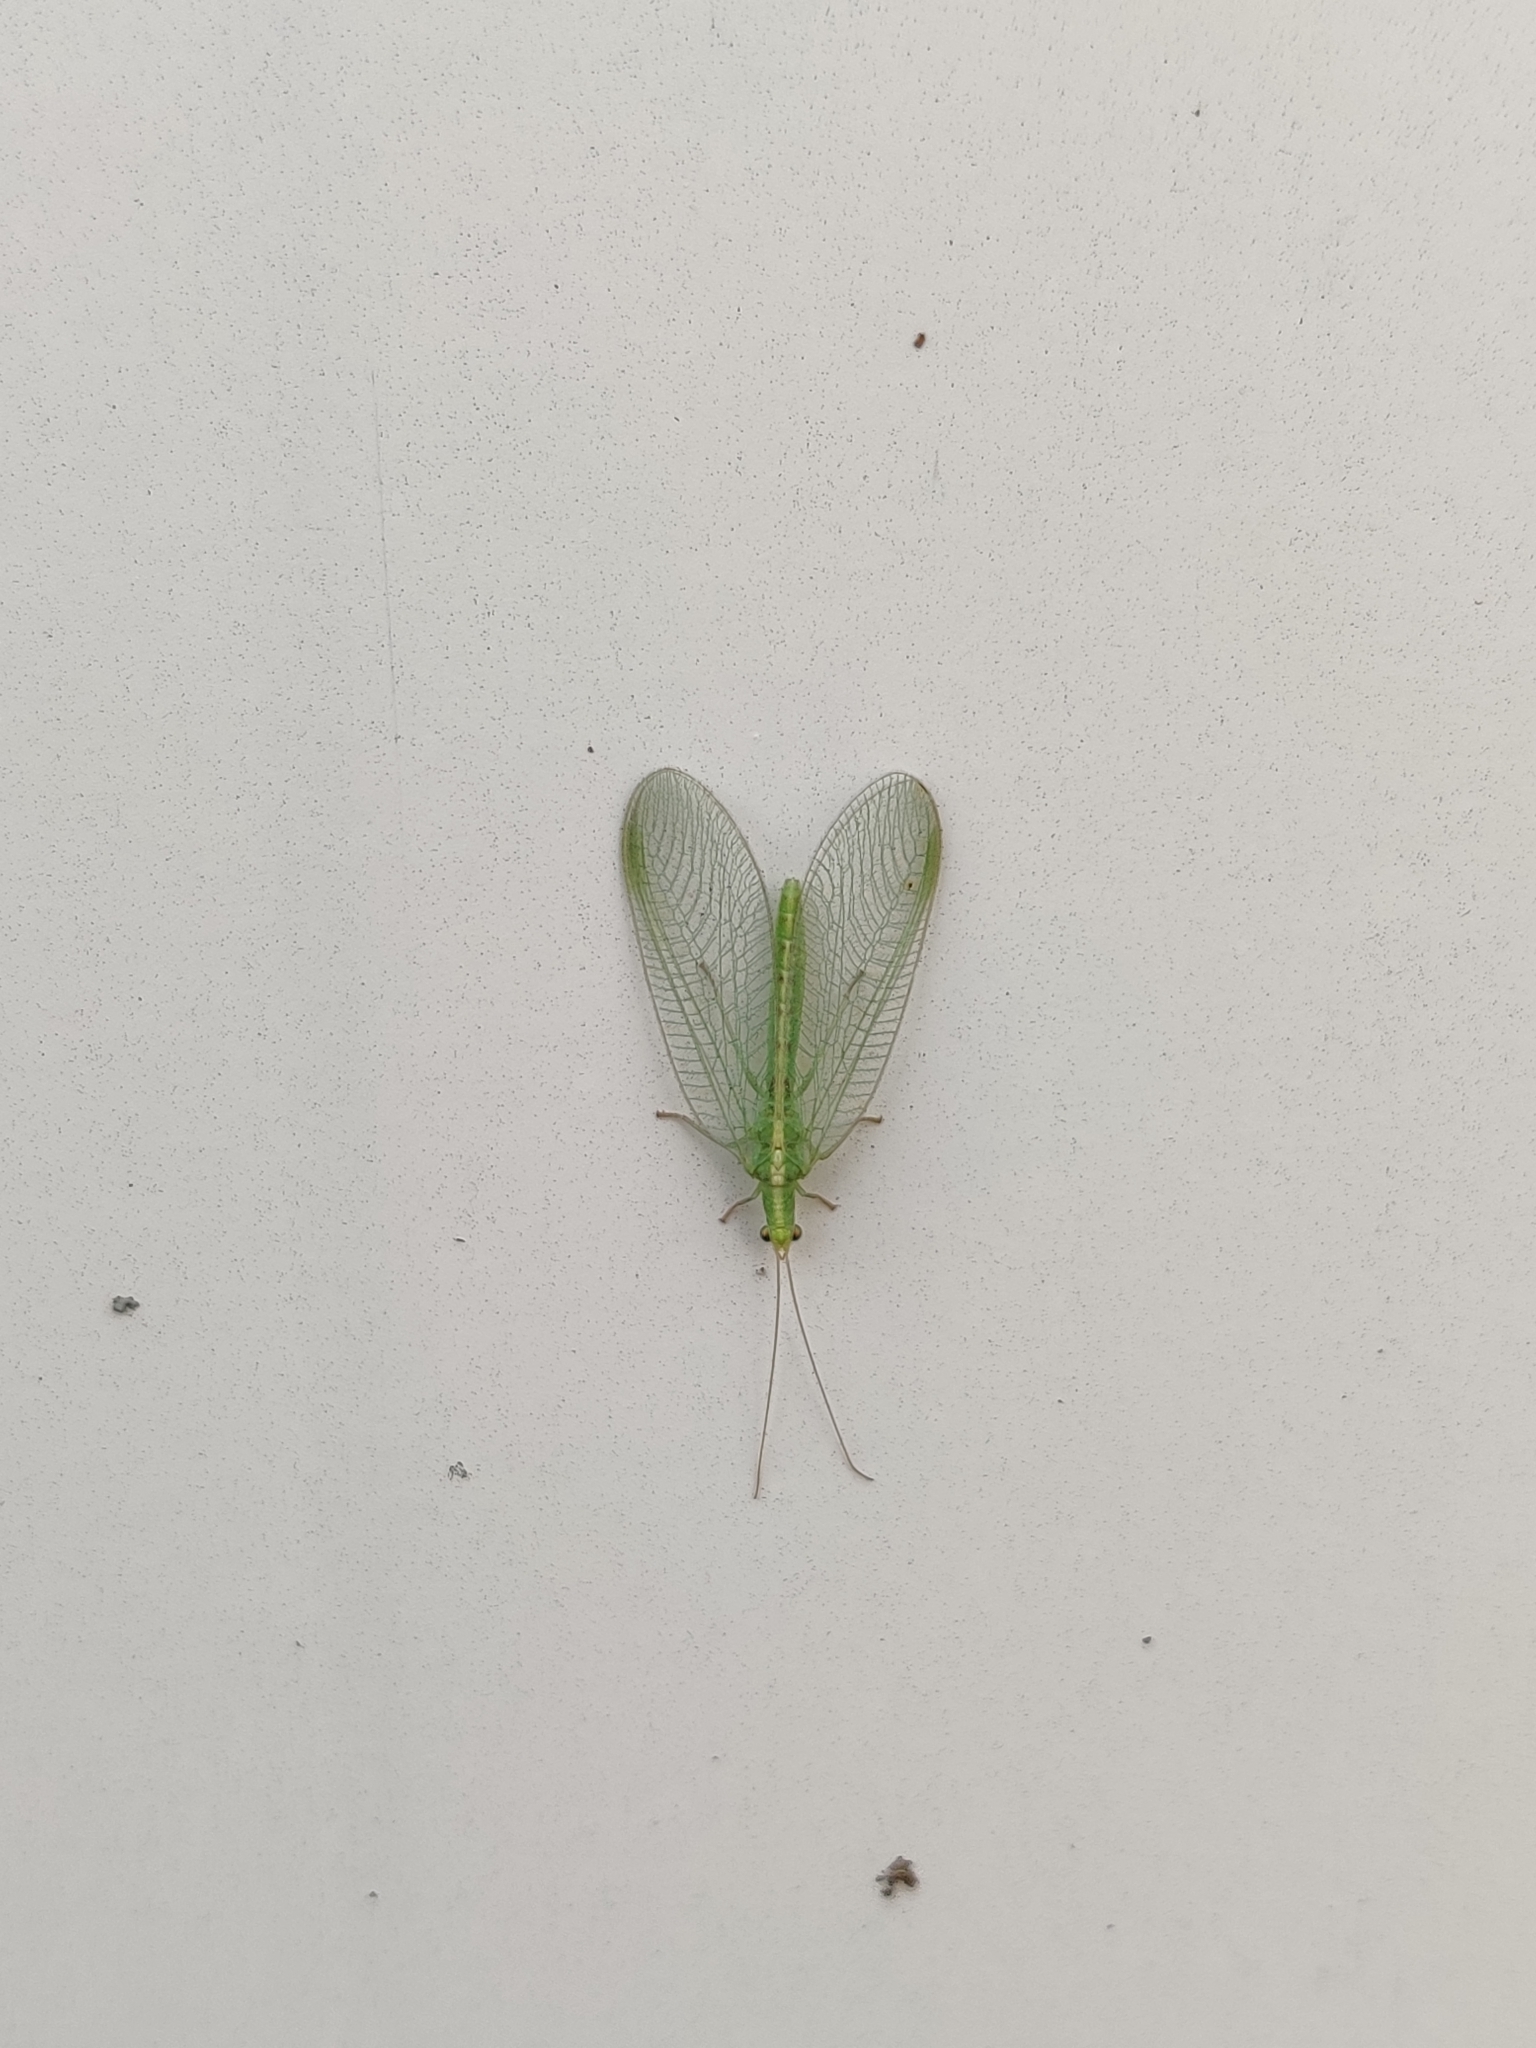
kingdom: Animalia
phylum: Arthropoda
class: Insecta
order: Neuroptera
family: Chrysopidae
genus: Chrysoperla
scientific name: Chrysoperla
